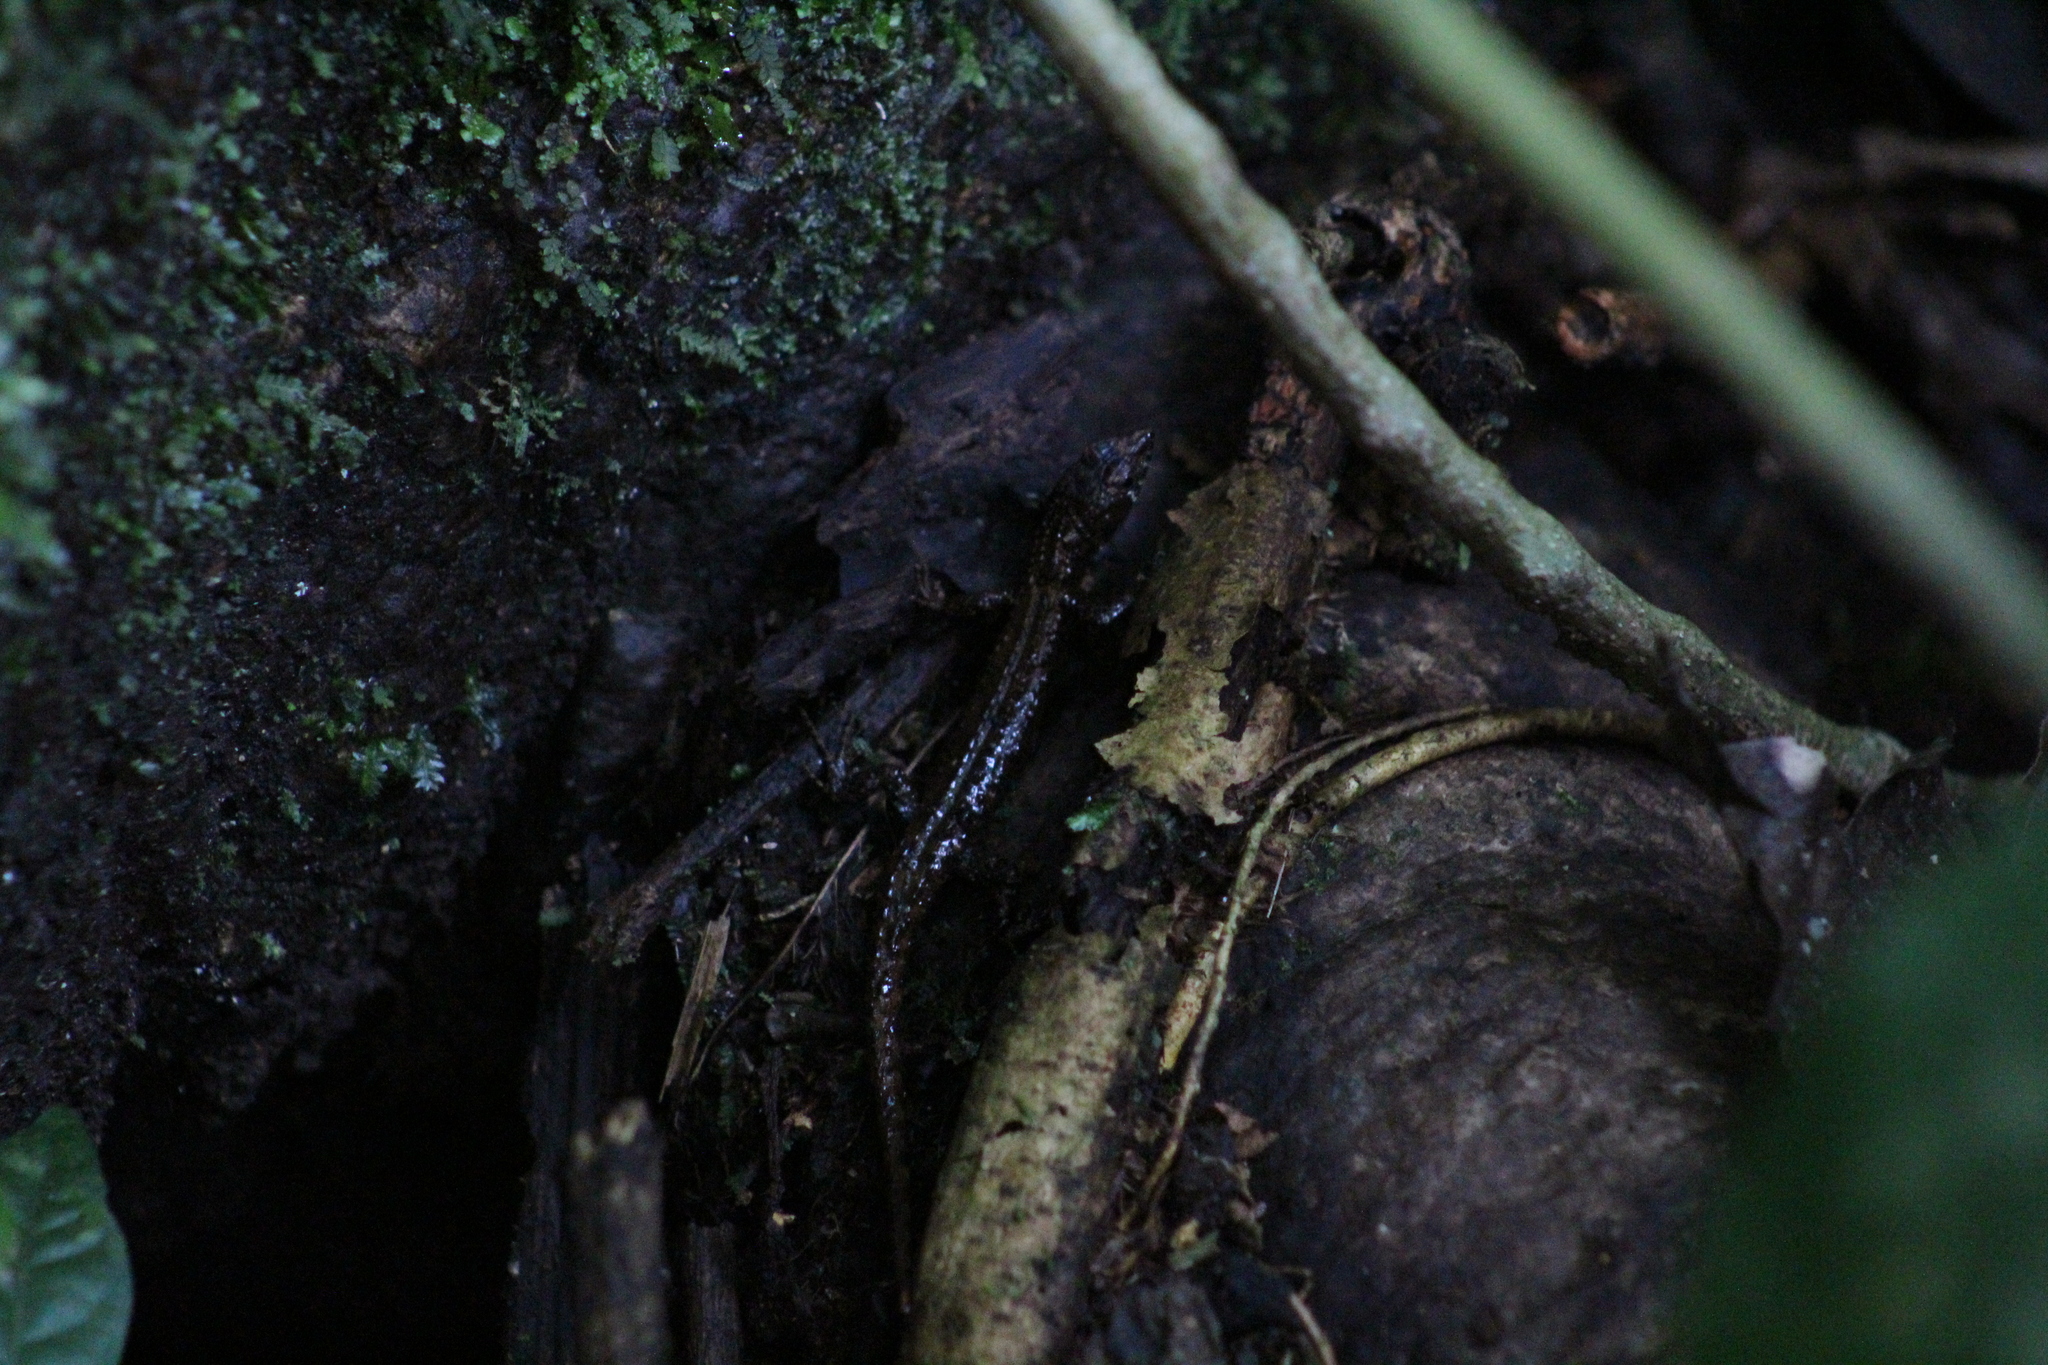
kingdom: Animalia
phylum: Chordata
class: Squamata
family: Gymnophthalmidae
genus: Potamites
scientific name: Potamites ecpleopus
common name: Common stream lizard
